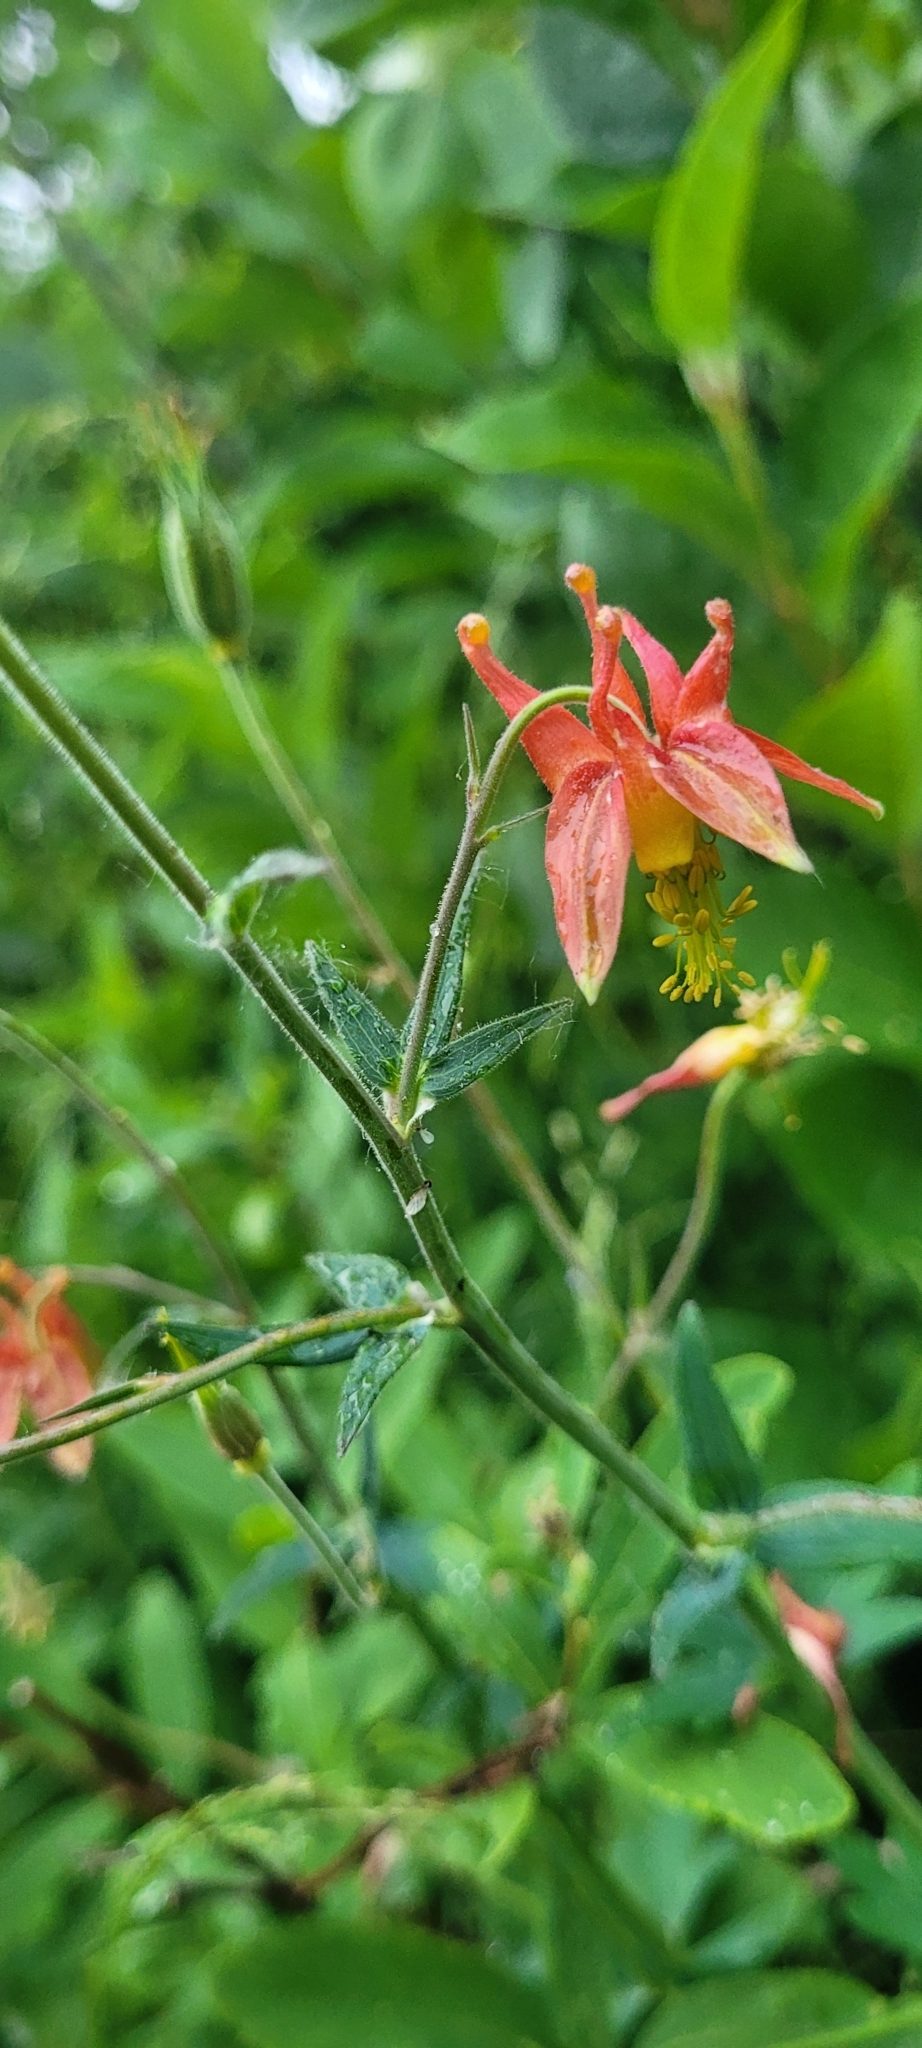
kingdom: Plantae
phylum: Tracheophyta
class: Magnoliopsida
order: Ranunculales
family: Ranunculaceae
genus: Aquilegia
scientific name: Aquilegia formosa
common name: Sitka columbine
